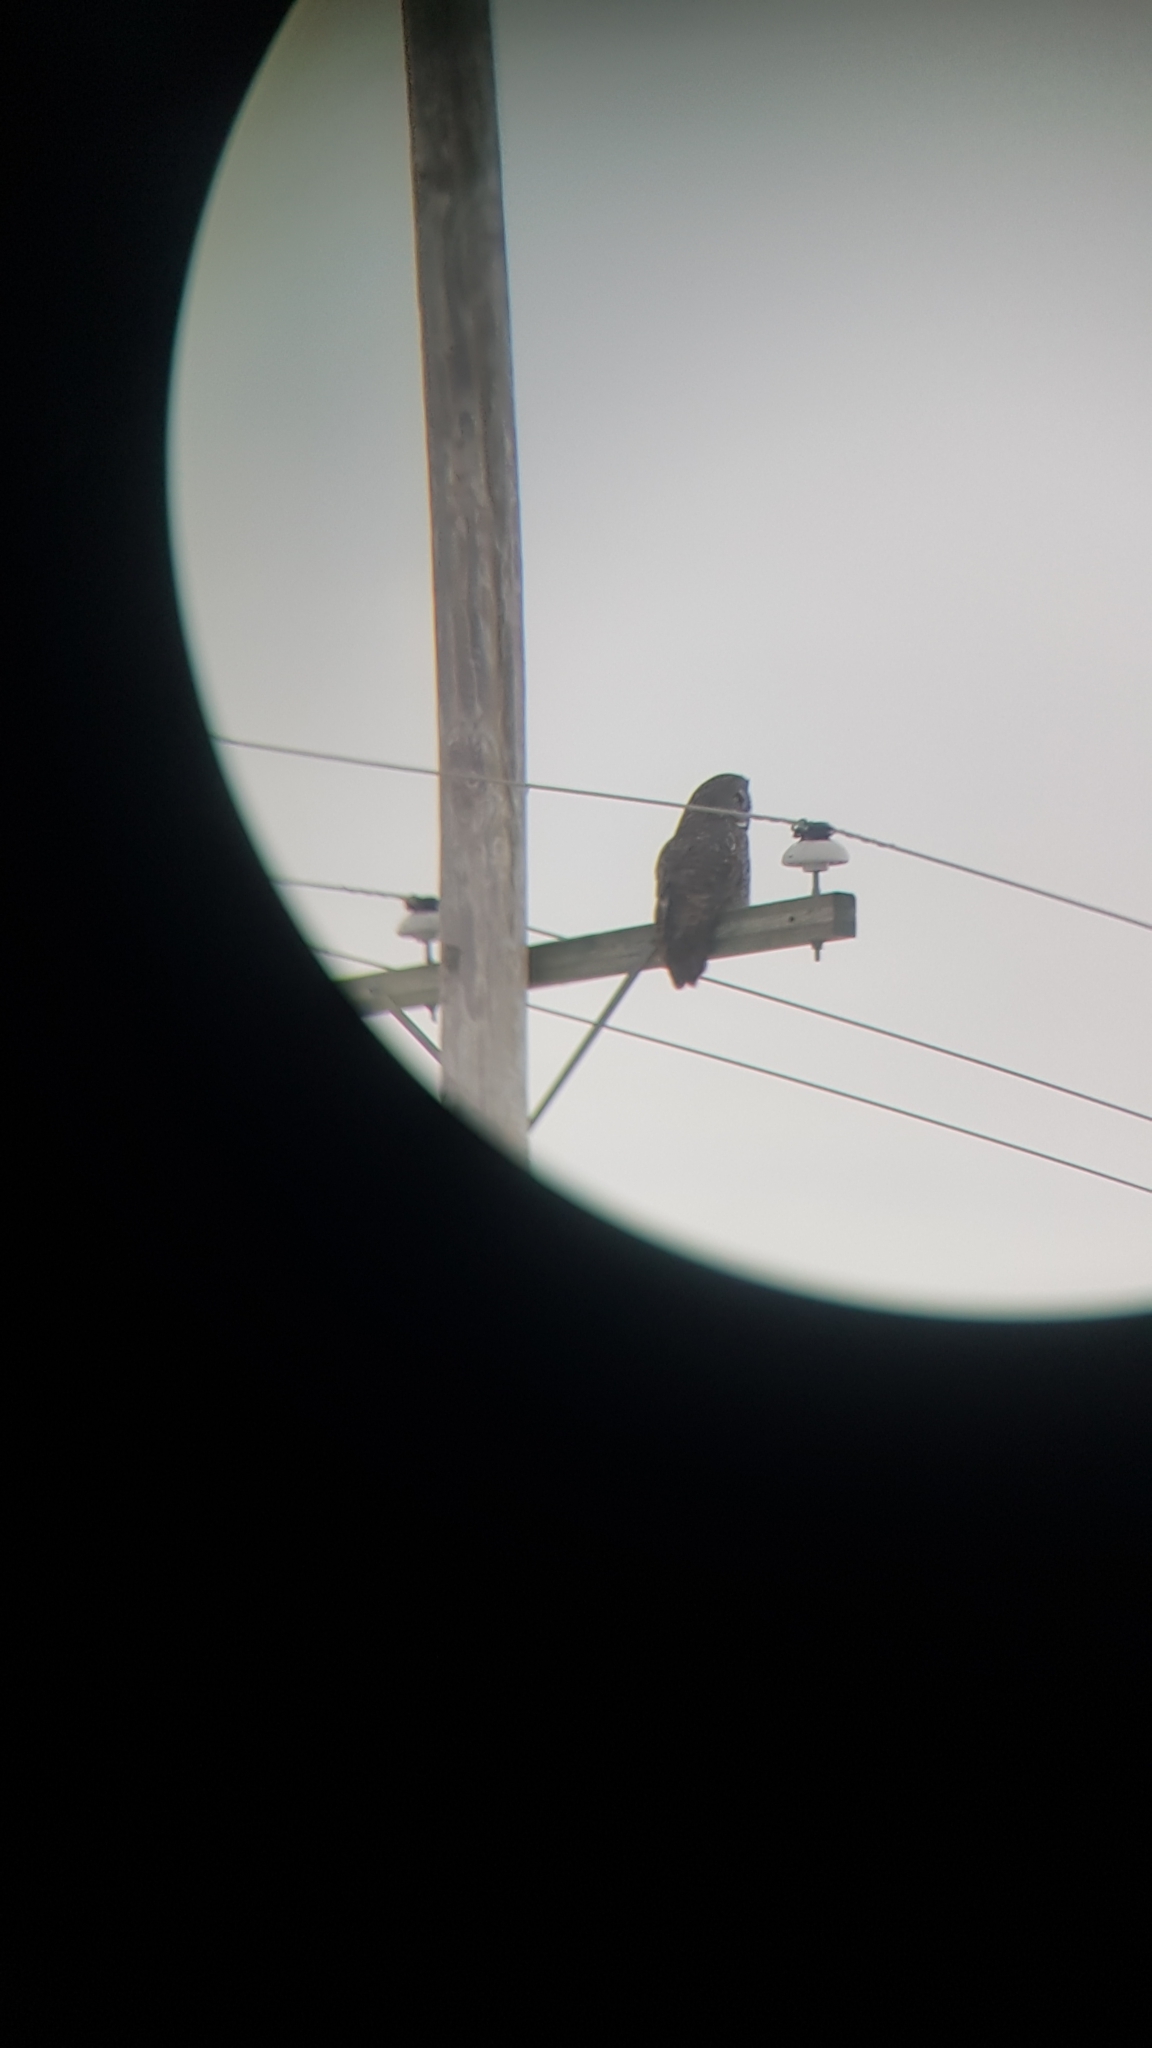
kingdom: Animalia
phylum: Chordata
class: Aves
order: Strigiformes
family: Strigidae
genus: Strix
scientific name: Strix nebulosa
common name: Great grey owl
